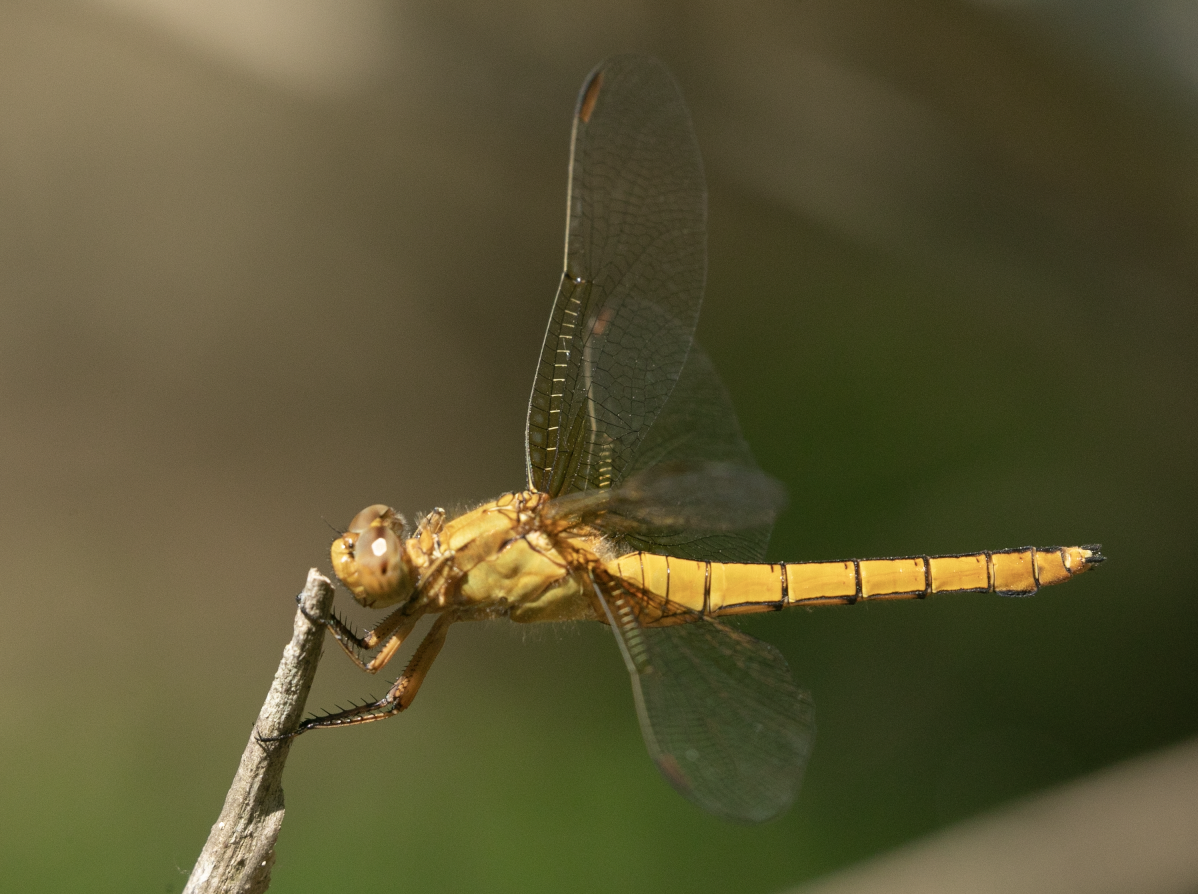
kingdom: Animalia
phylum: Arthropoda
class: Insecta
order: Odonata
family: Libellulidae
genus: Orthetrum
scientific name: Orthetrum coerulescens
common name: Keeled skimmer
